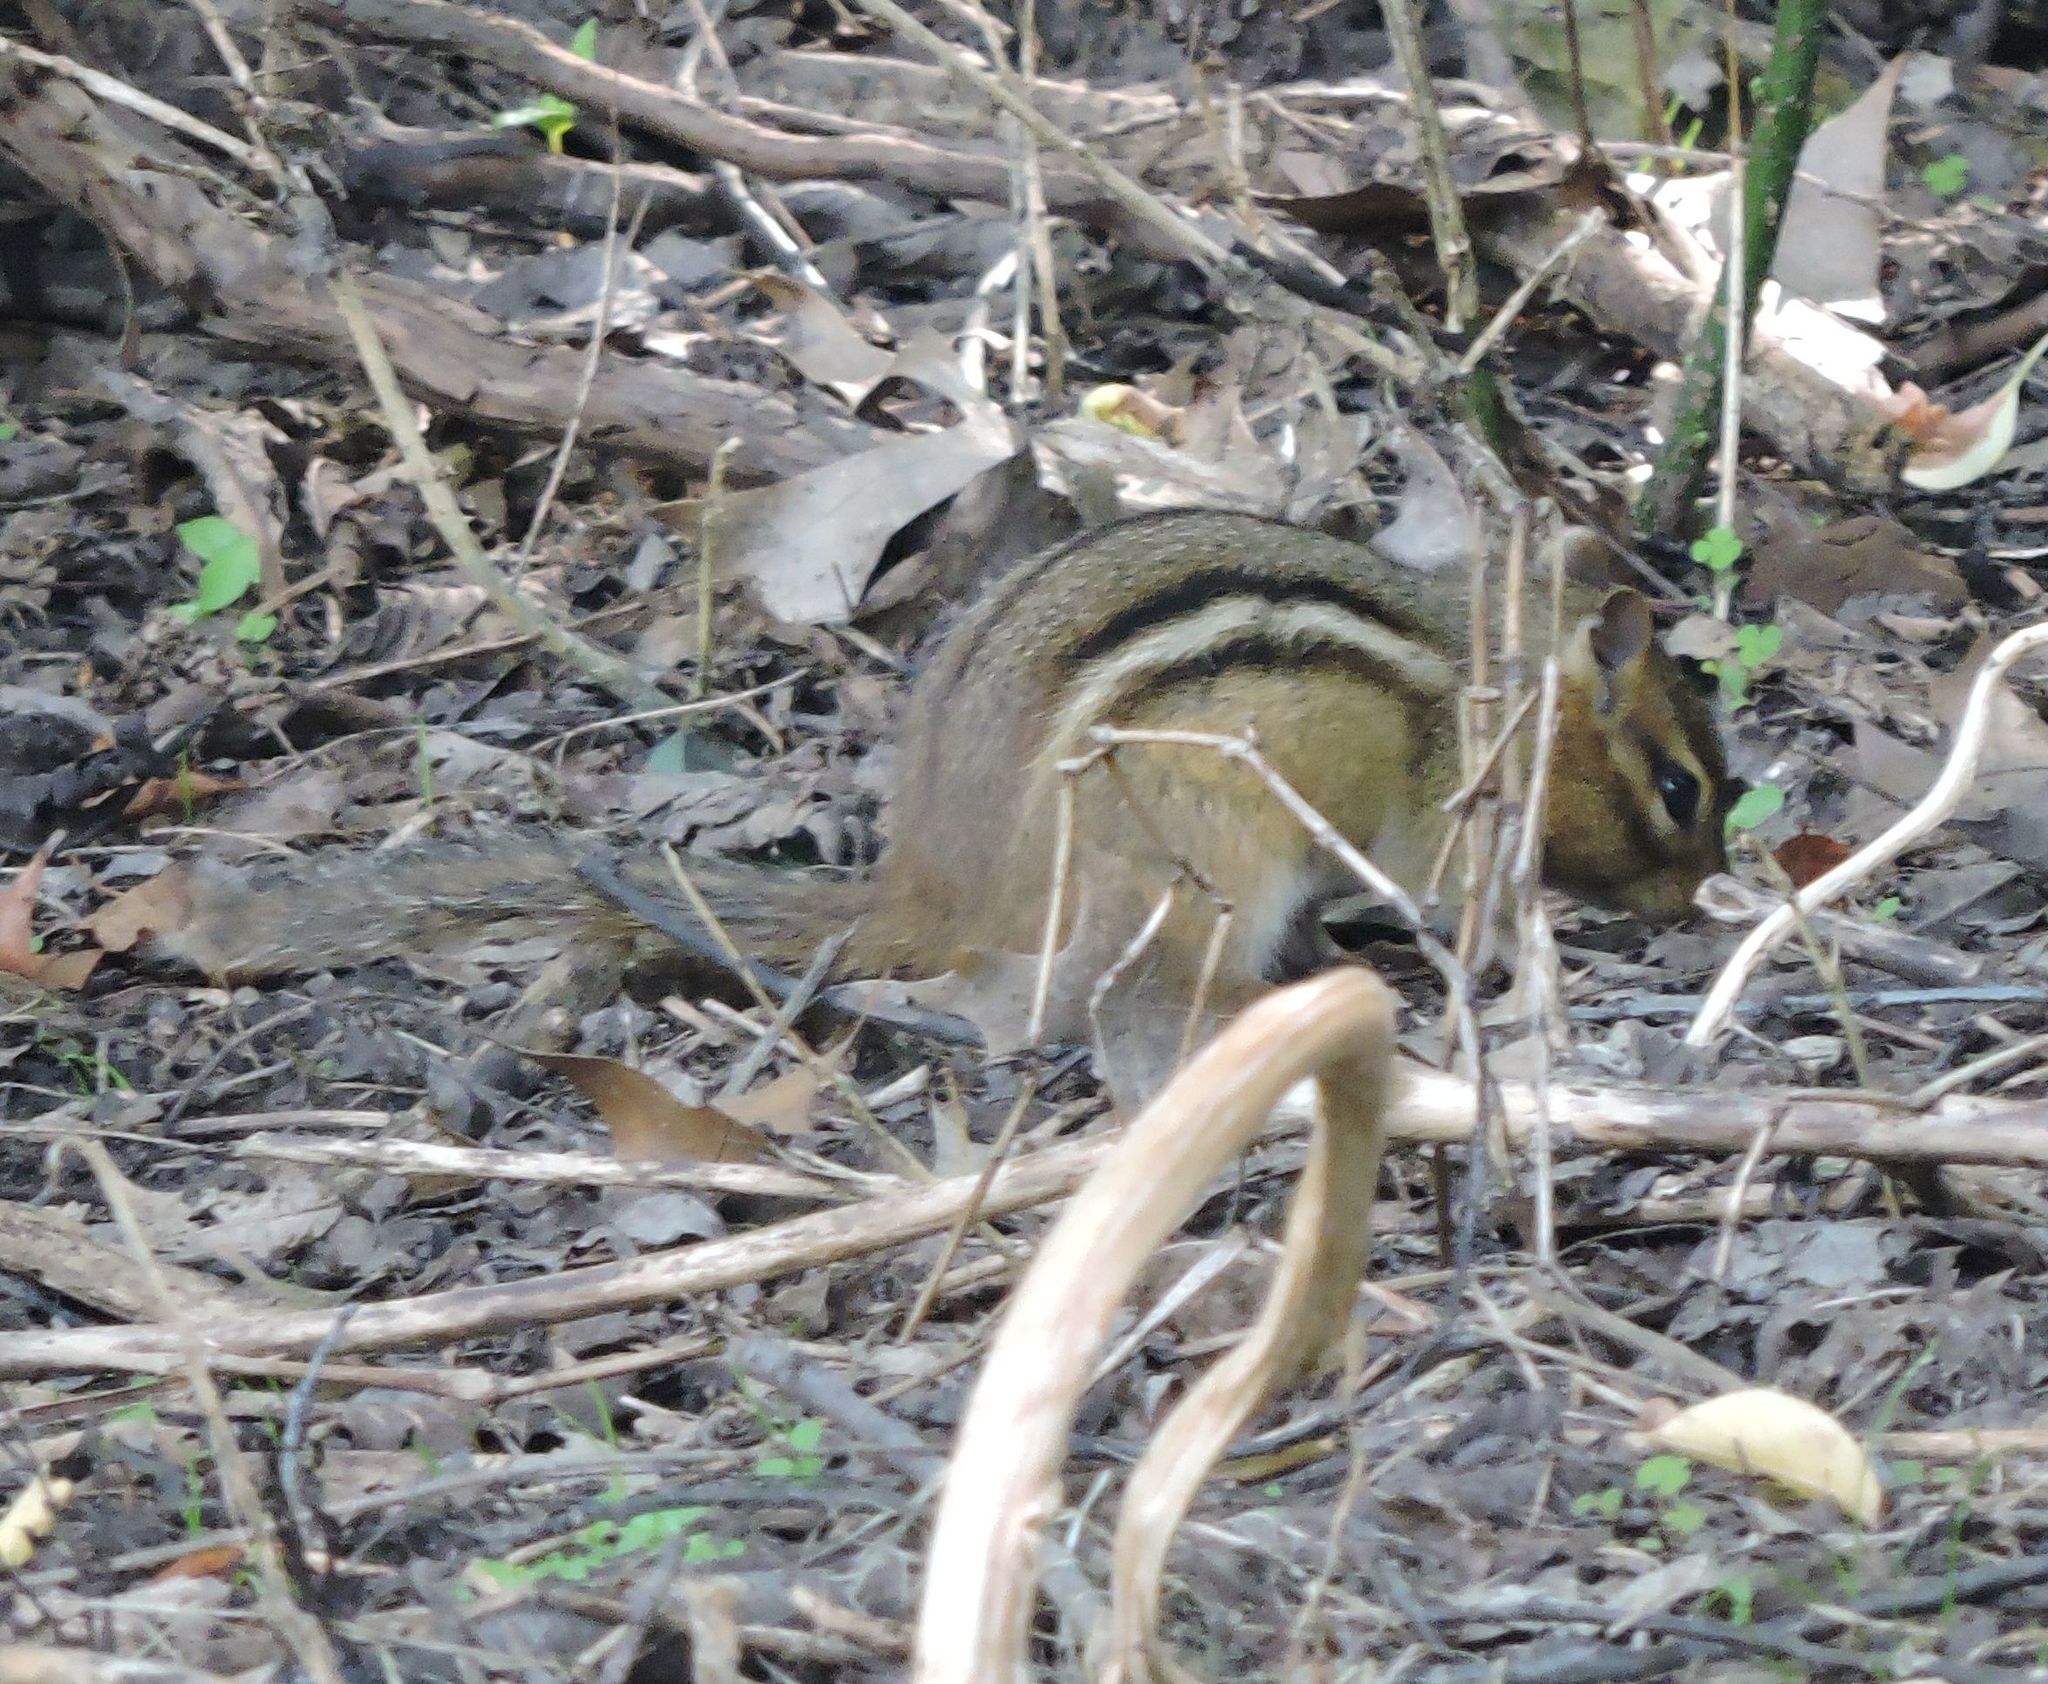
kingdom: Animalia
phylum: Chordata
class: Mammalia
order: Rodentia
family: Sciuridae
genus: Tamias
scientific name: Tamias striatus
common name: Eastern chipmunk
